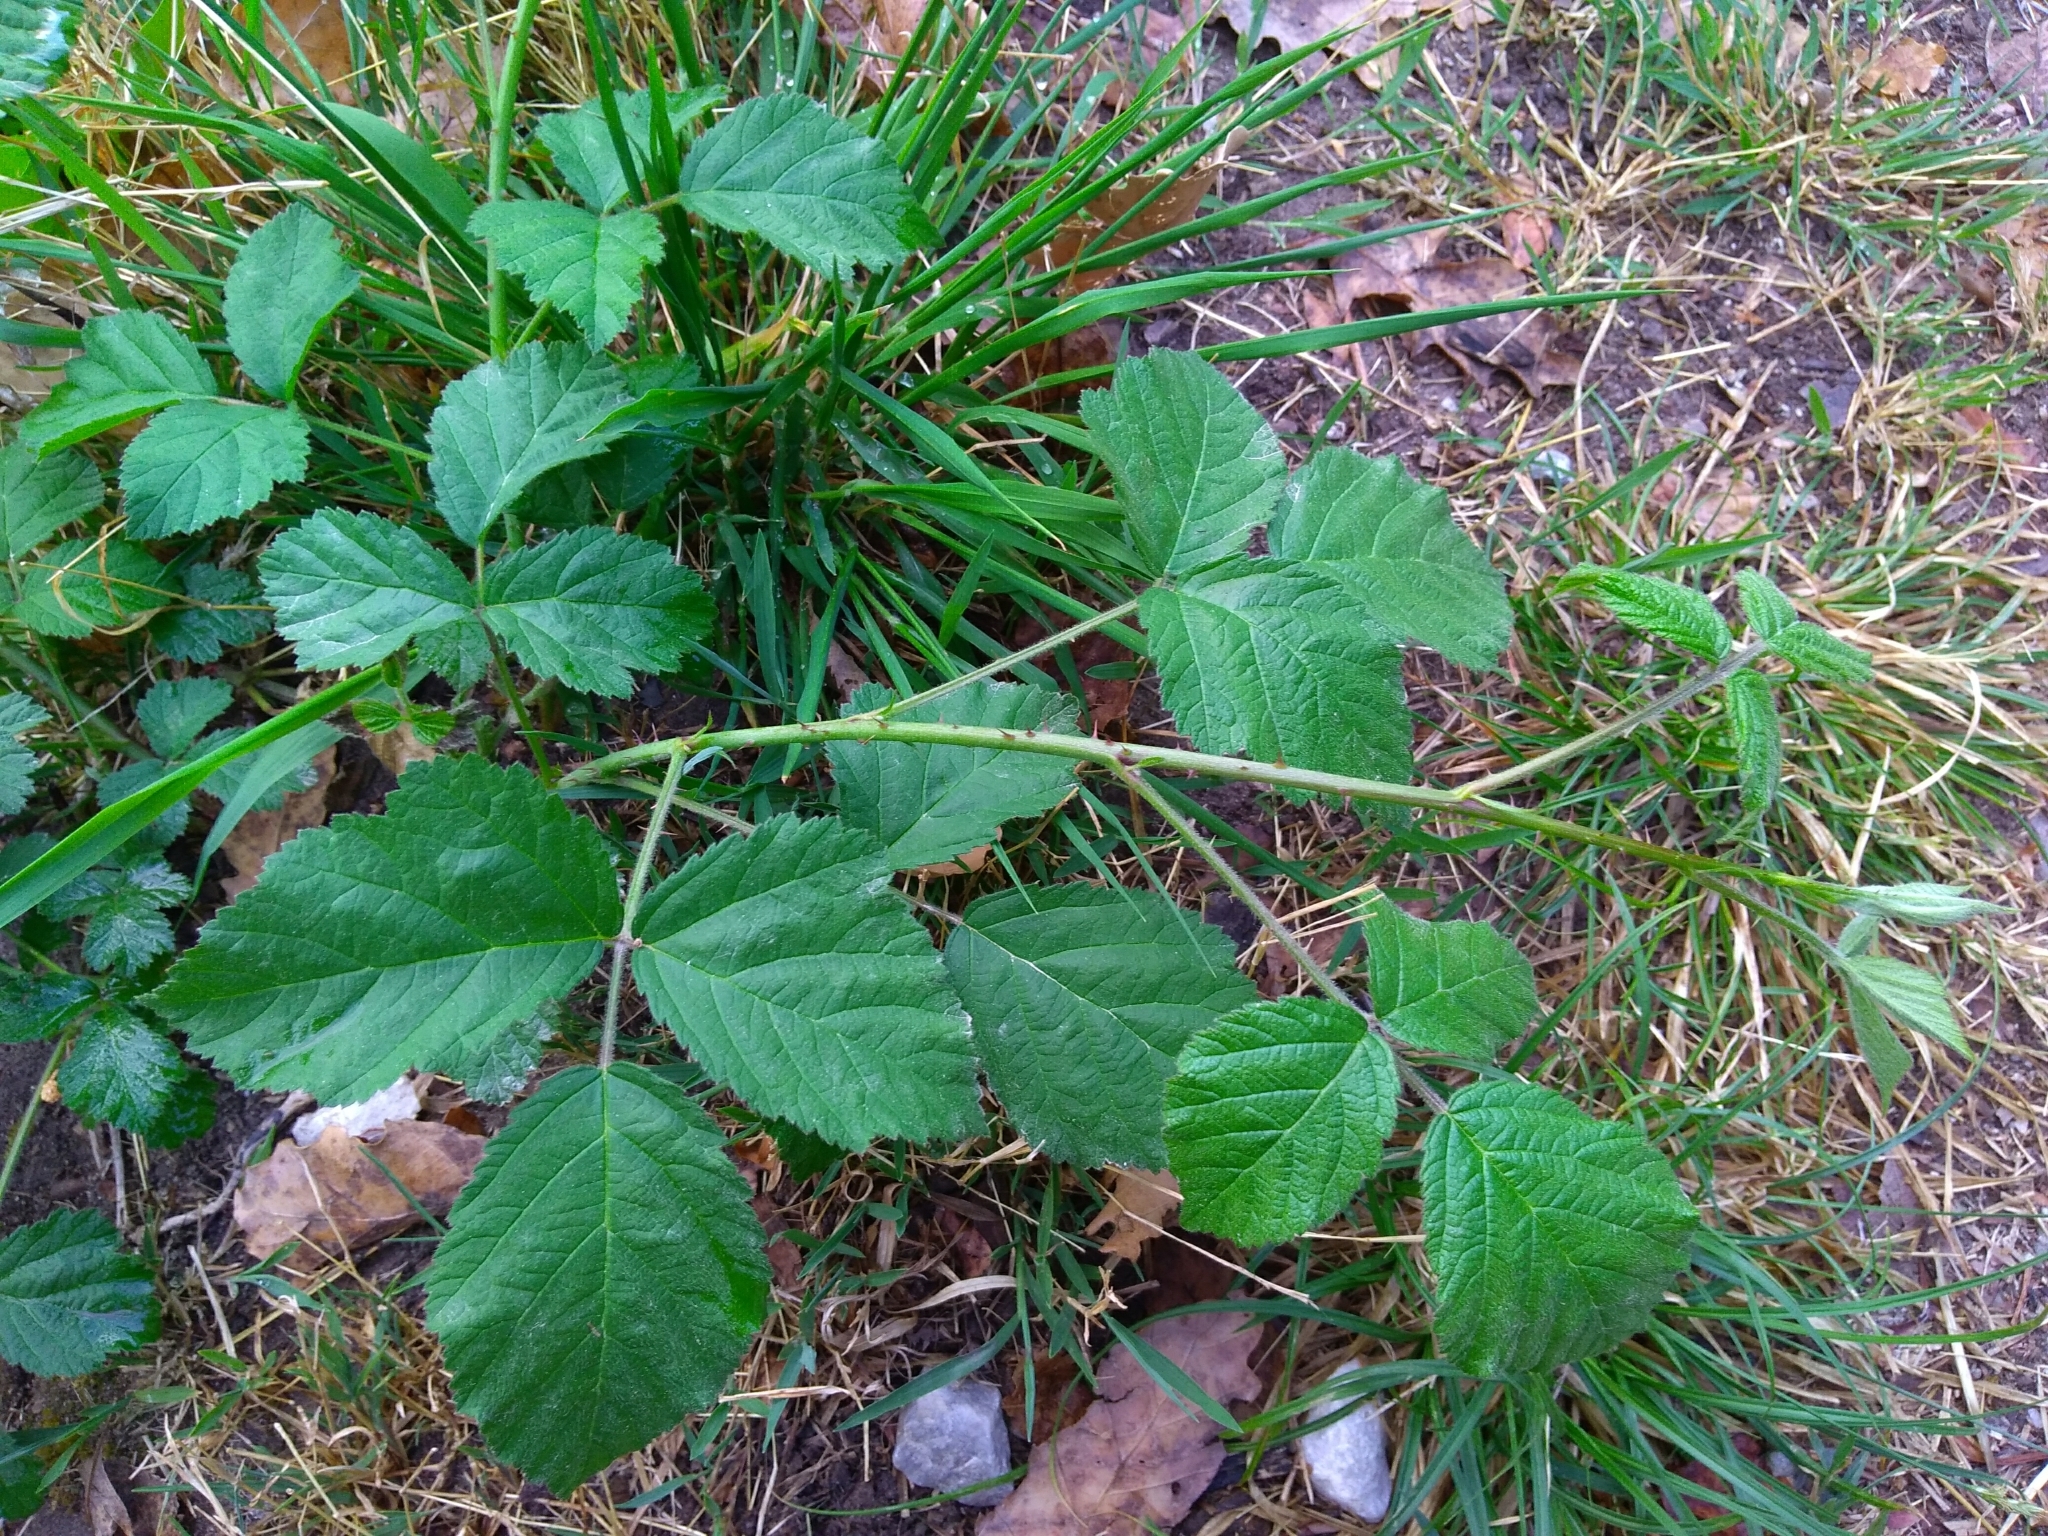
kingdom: Plantae
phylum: Tracheophyta
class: Magnoliopsida
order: Rosales
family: Rosaceae
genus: Rubus
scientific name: Rubus caesius
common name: Dewberry
